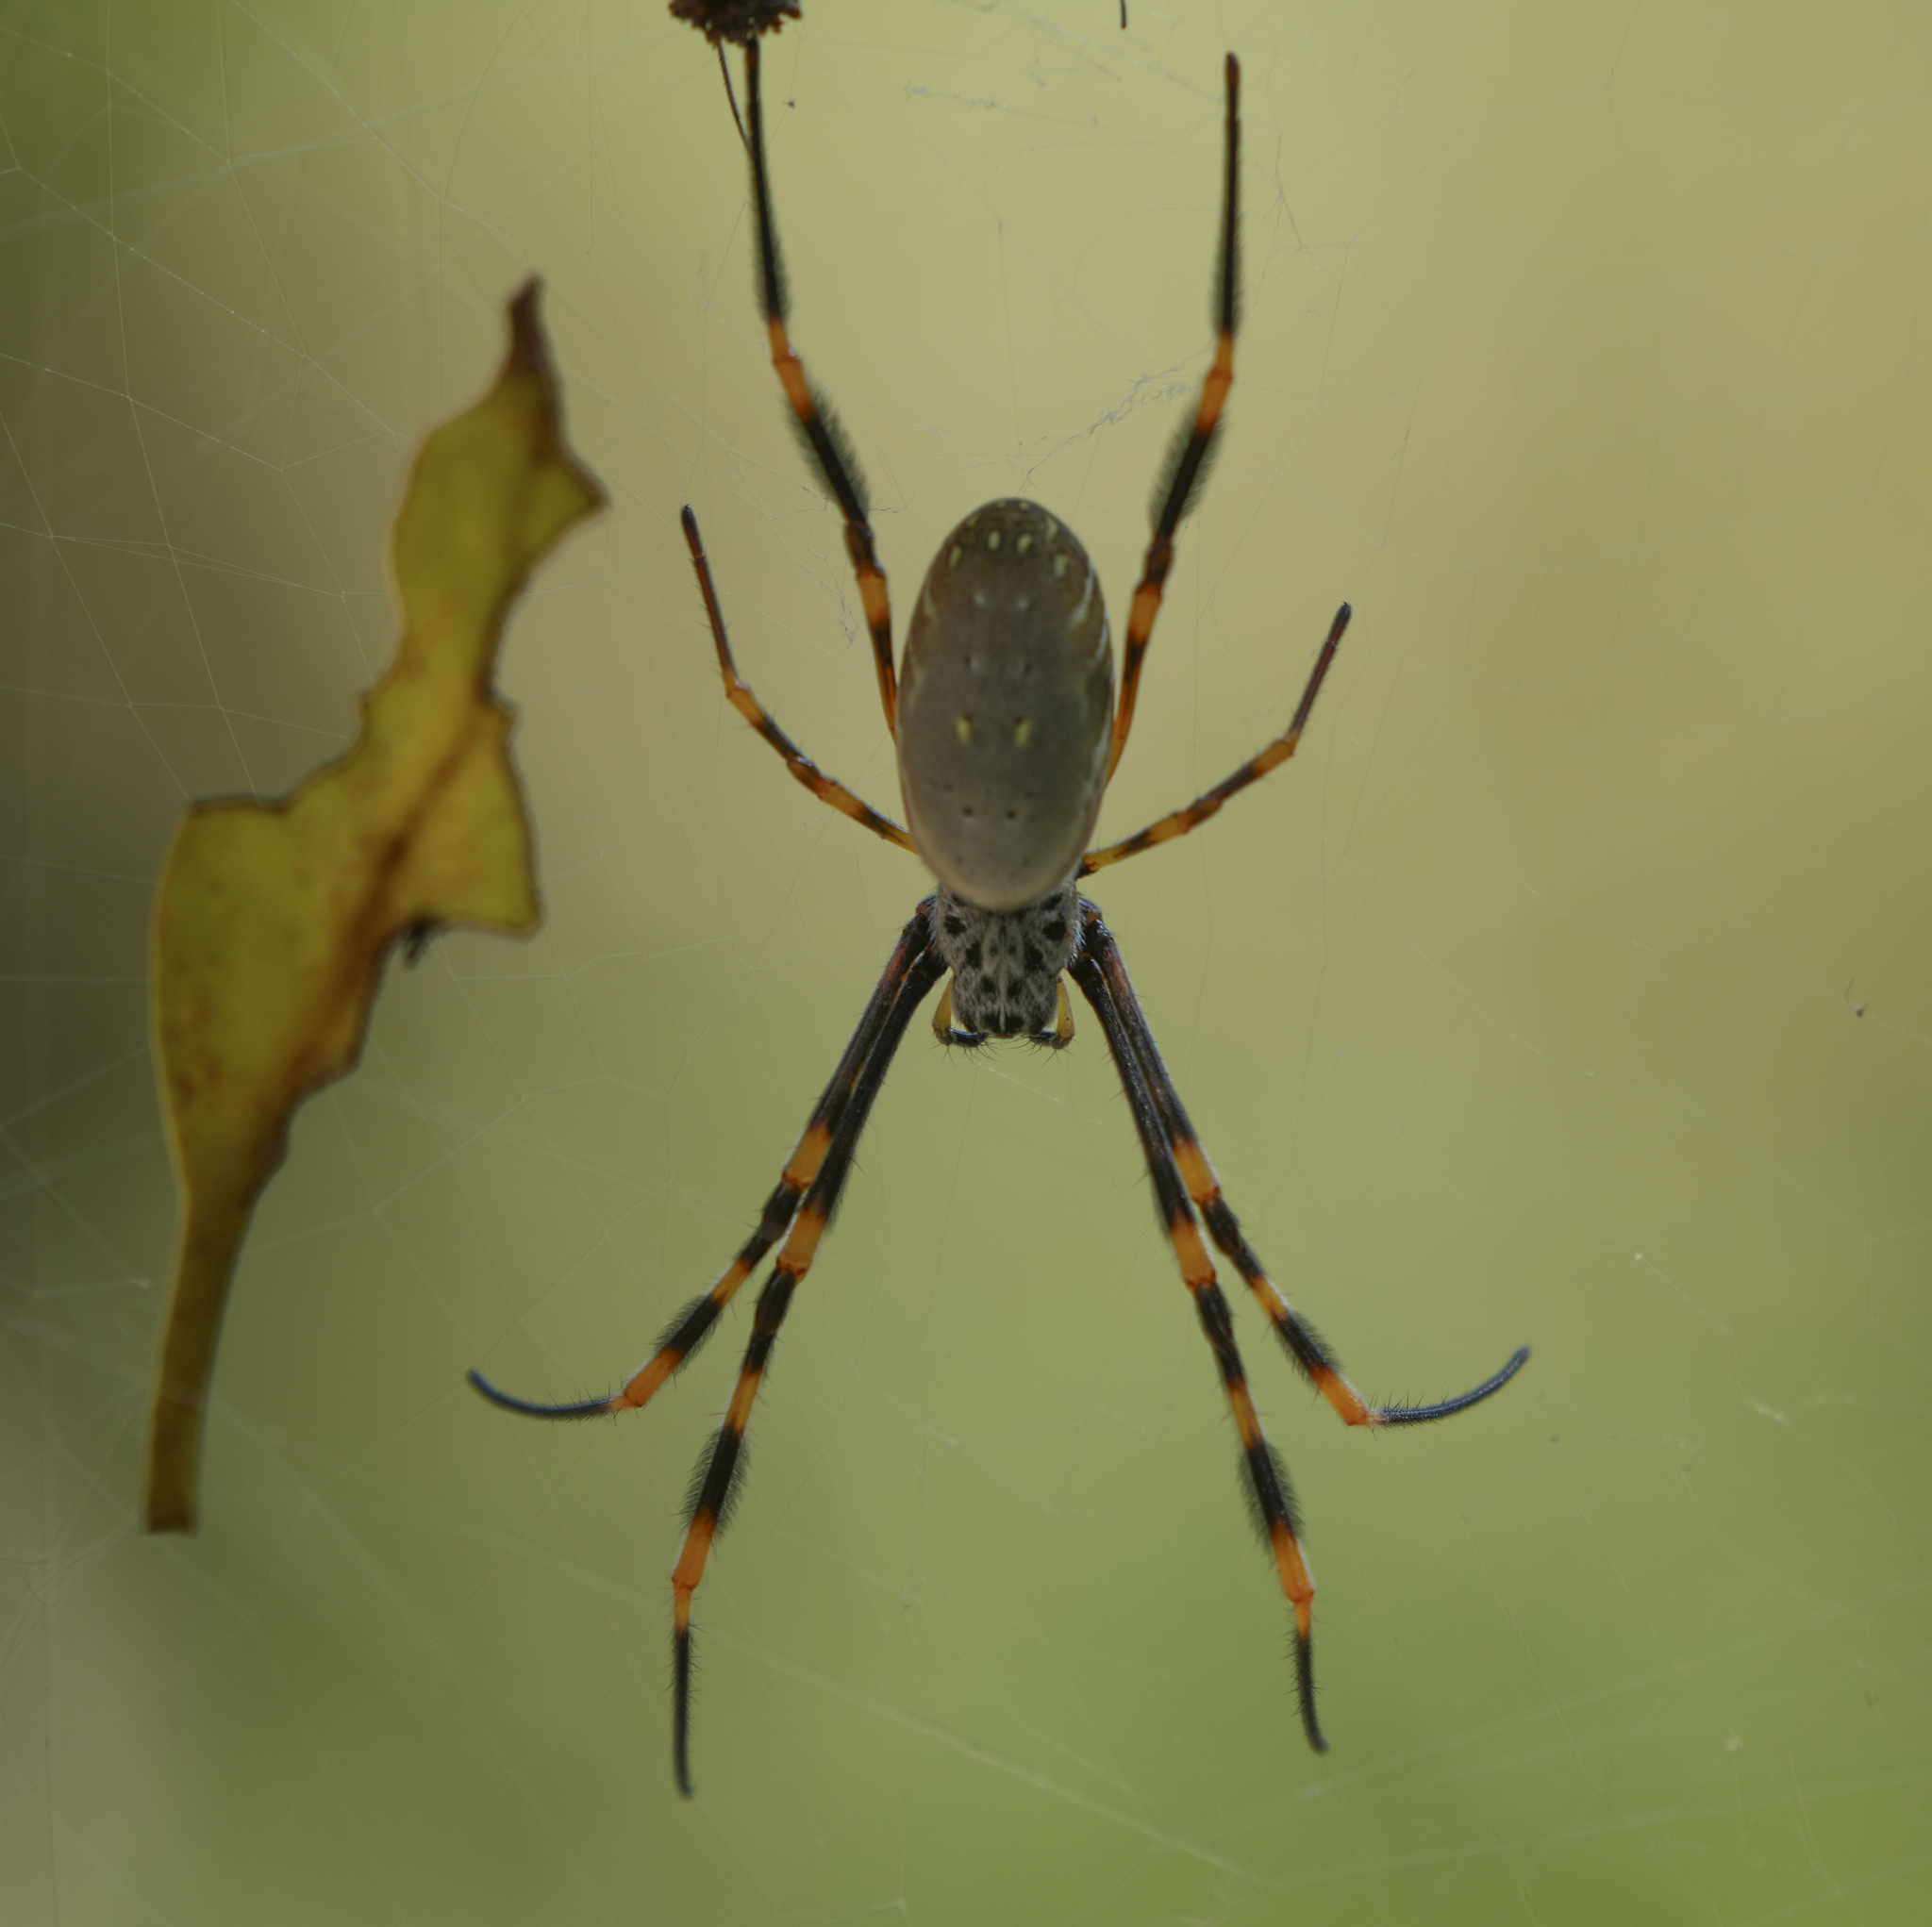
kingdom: Animalia
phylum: Arthropoda
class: Arachnida
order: Araneae
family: Araneidae
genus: Trichonephila
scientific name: Trichonephila plumipes
